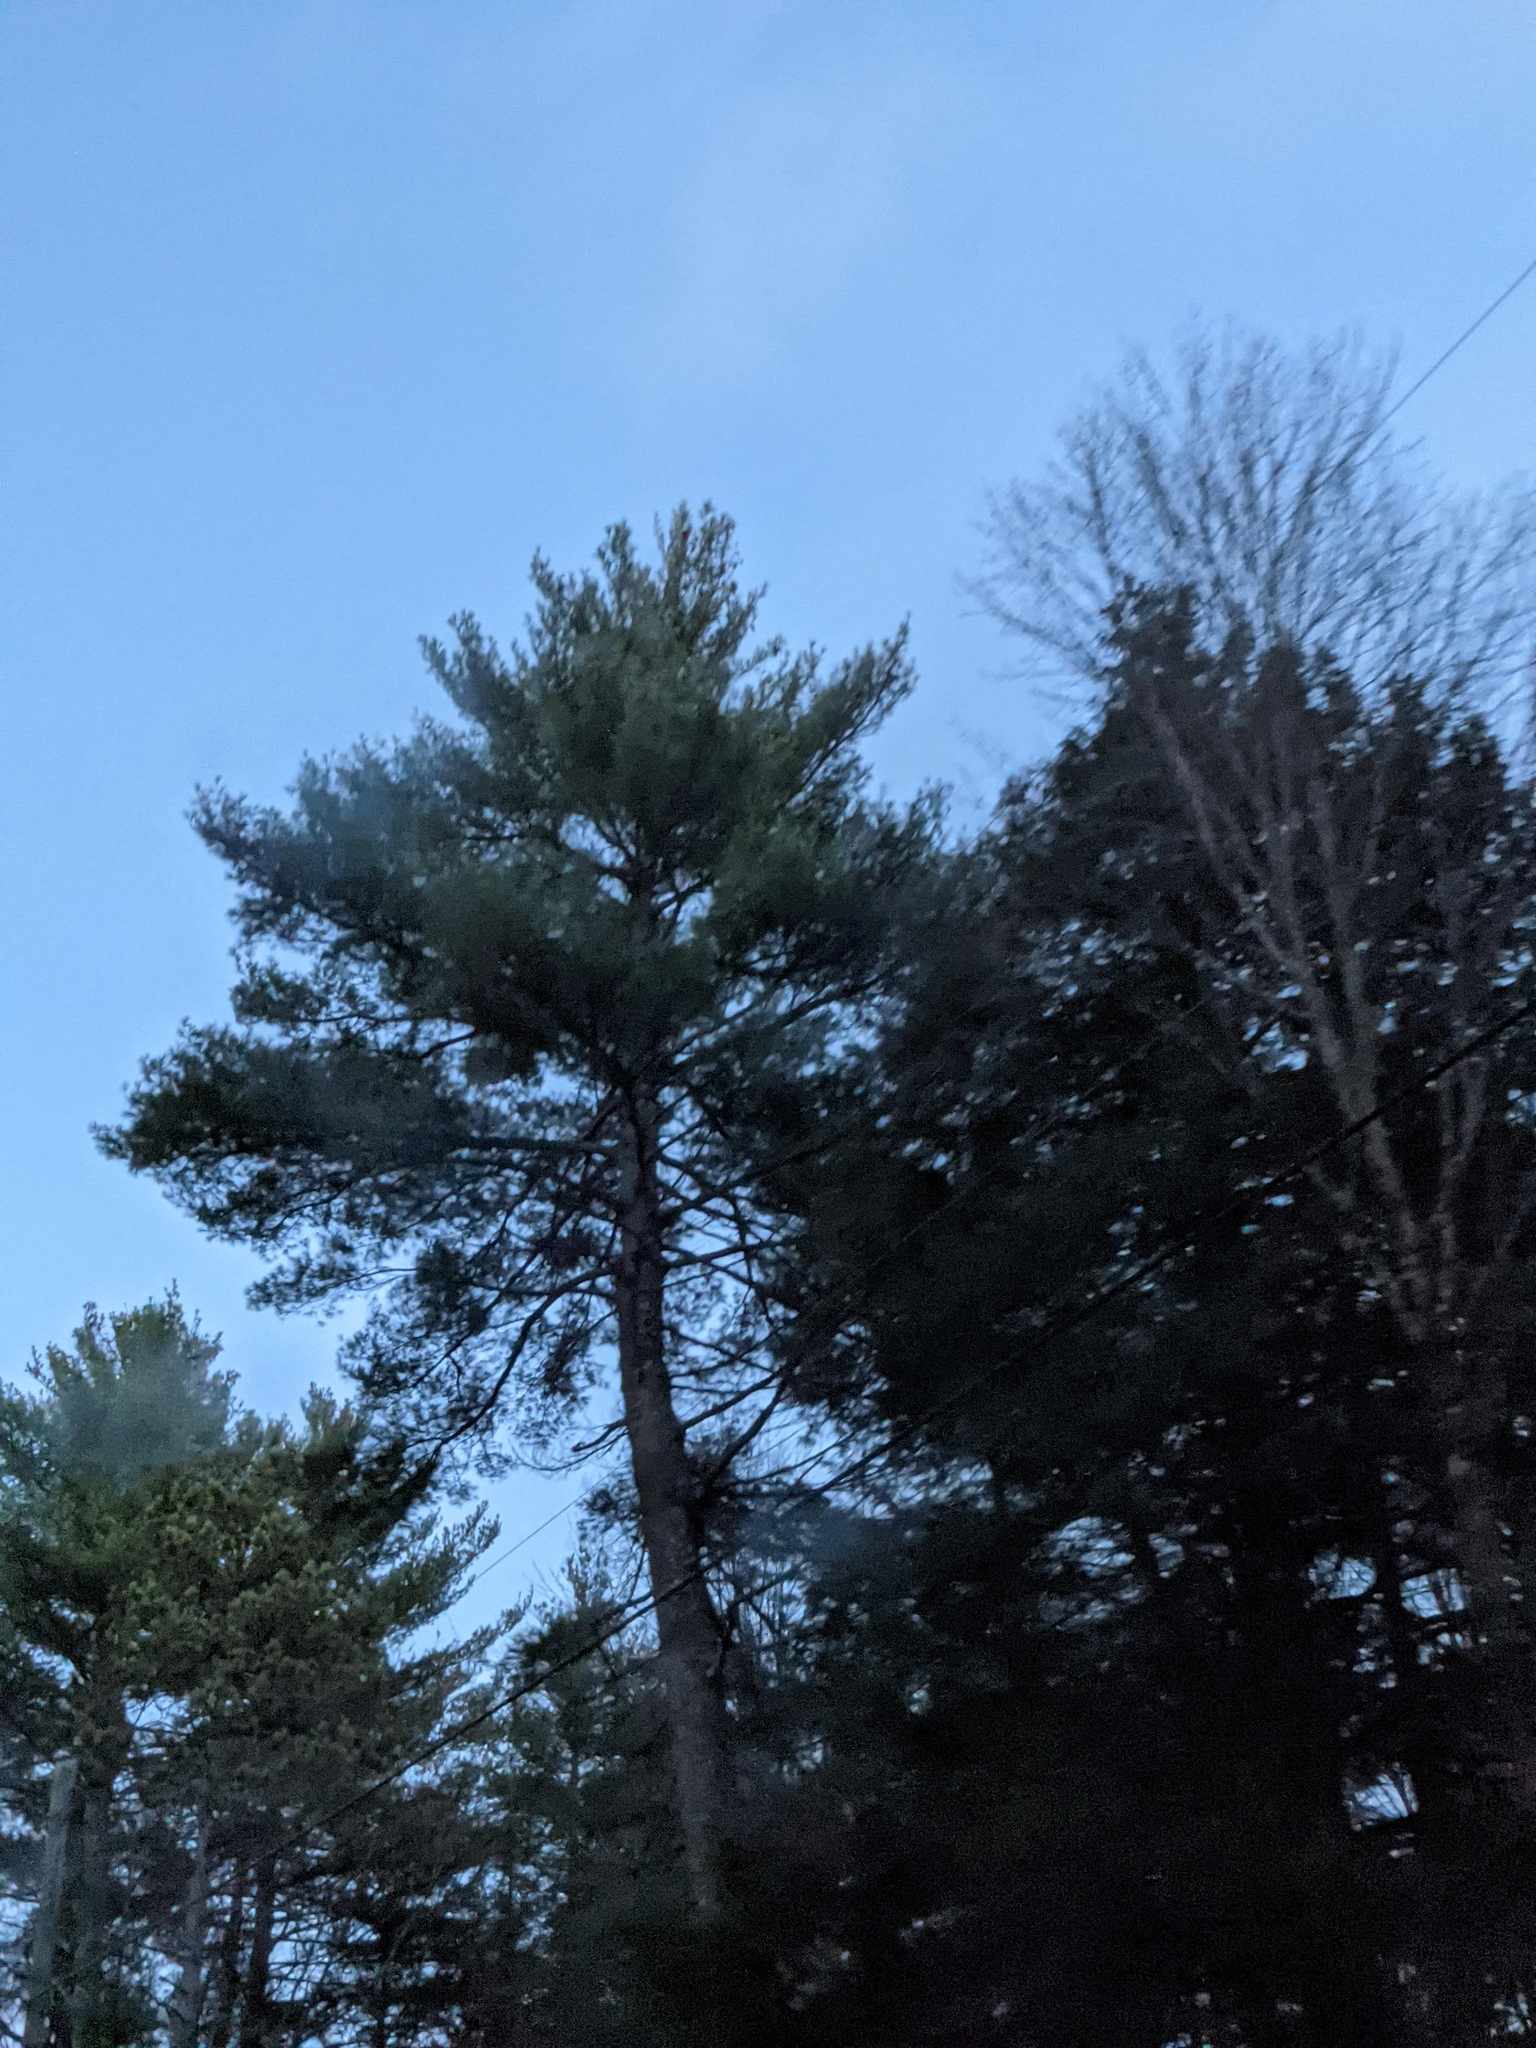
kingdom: Plantae
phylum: Tracheophyta
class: Pinopsida
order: Pinales
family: Pinaceae
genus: Pinus
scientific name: Pinus strobus
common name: Weymouth pine
